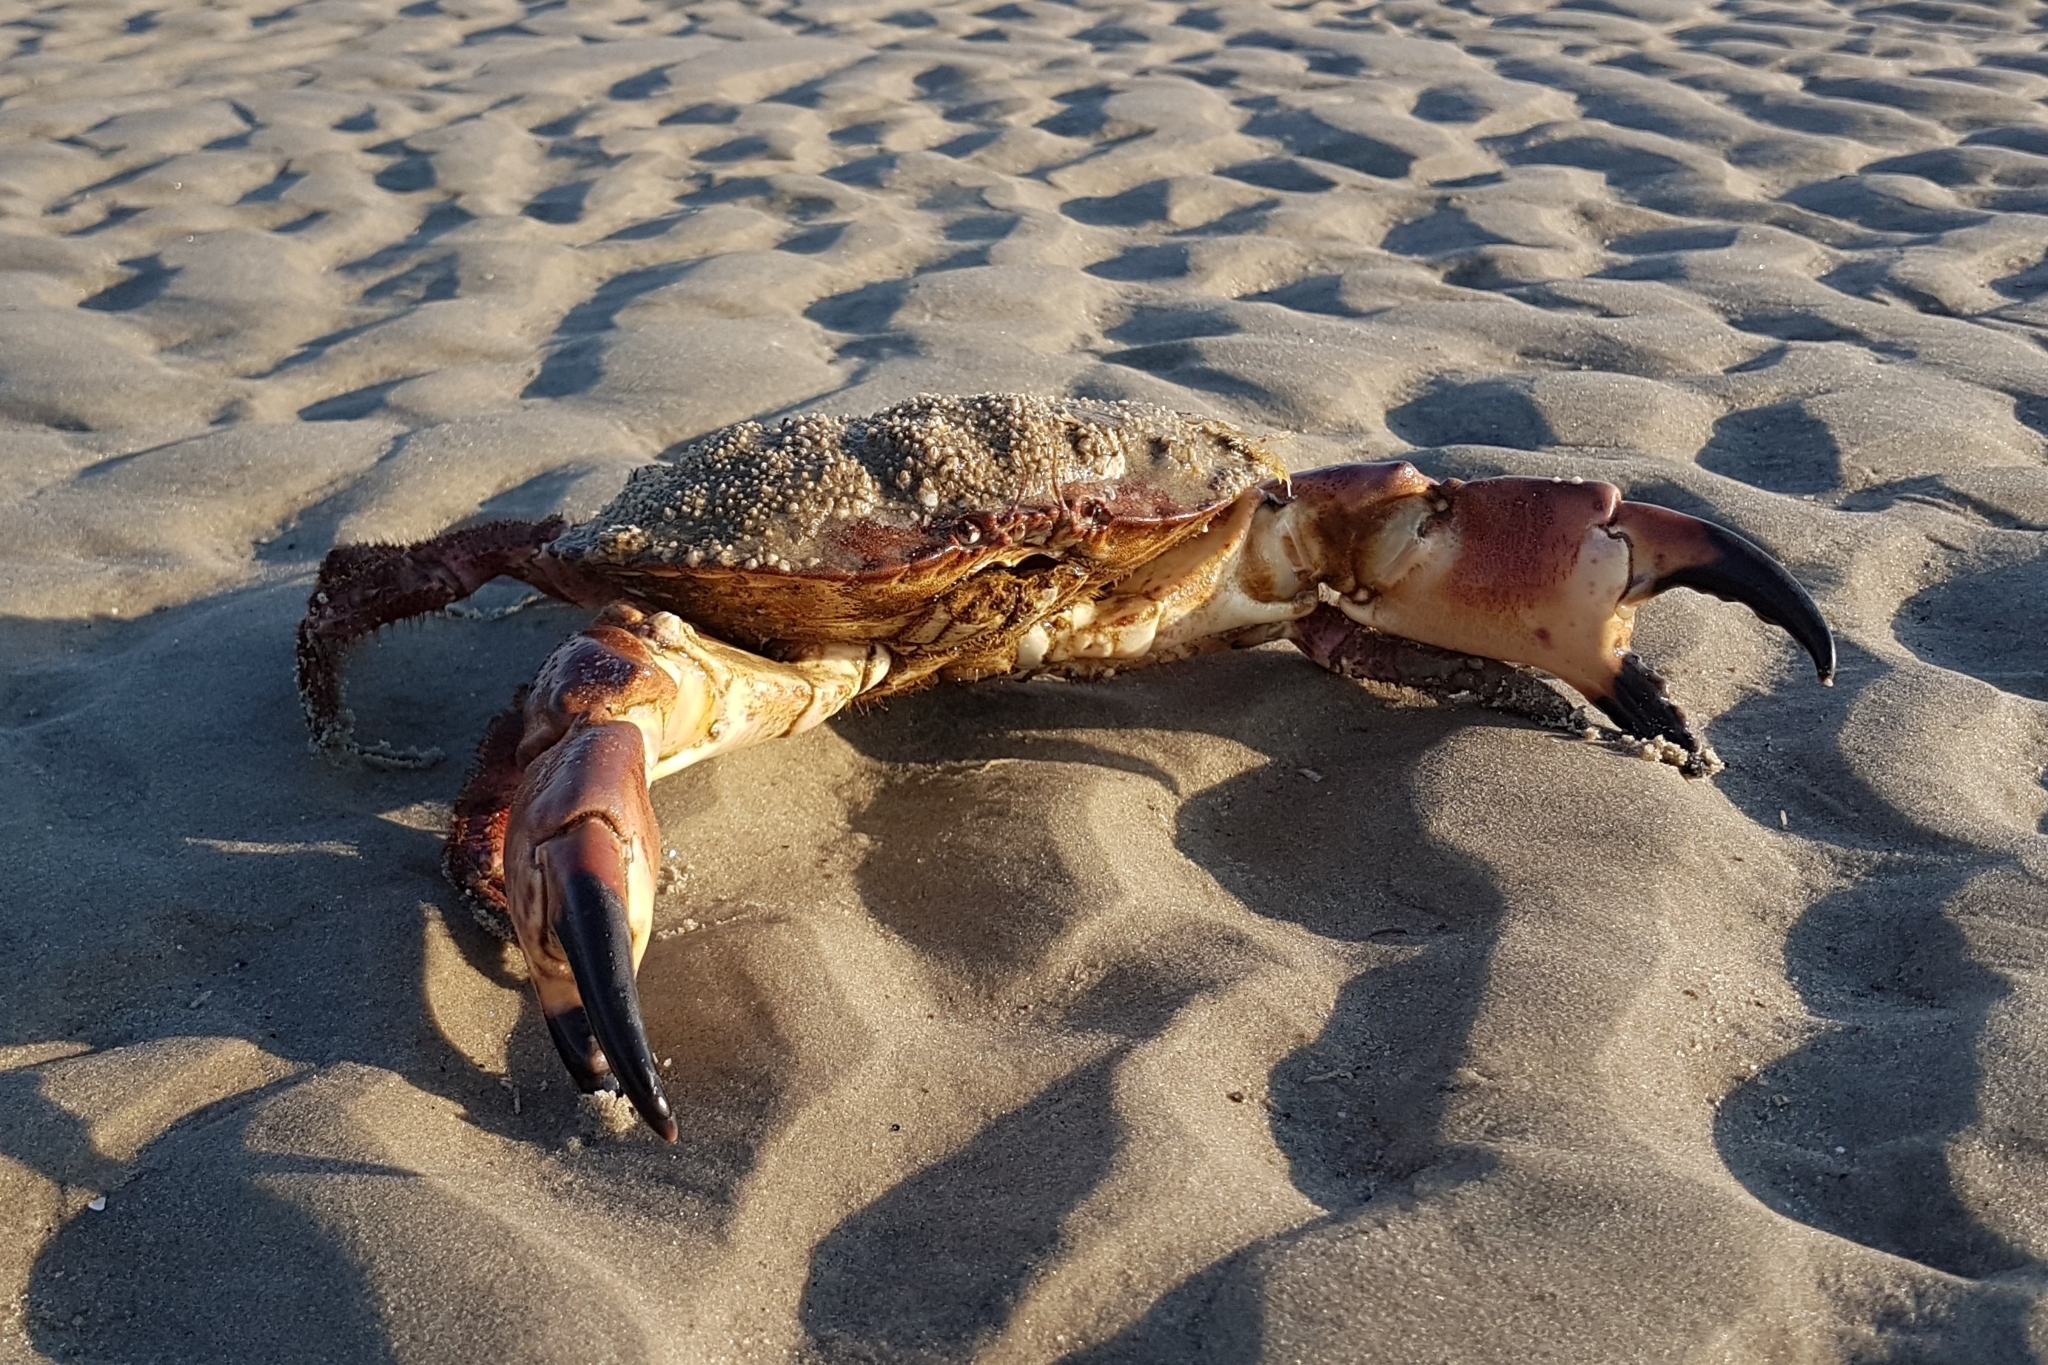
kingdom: Animalia
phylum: Arthropoda
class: Malacostraca
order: Decapoda
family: Cancridae
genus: Cancer
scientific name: Cancer pagurus
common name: Edible crab
